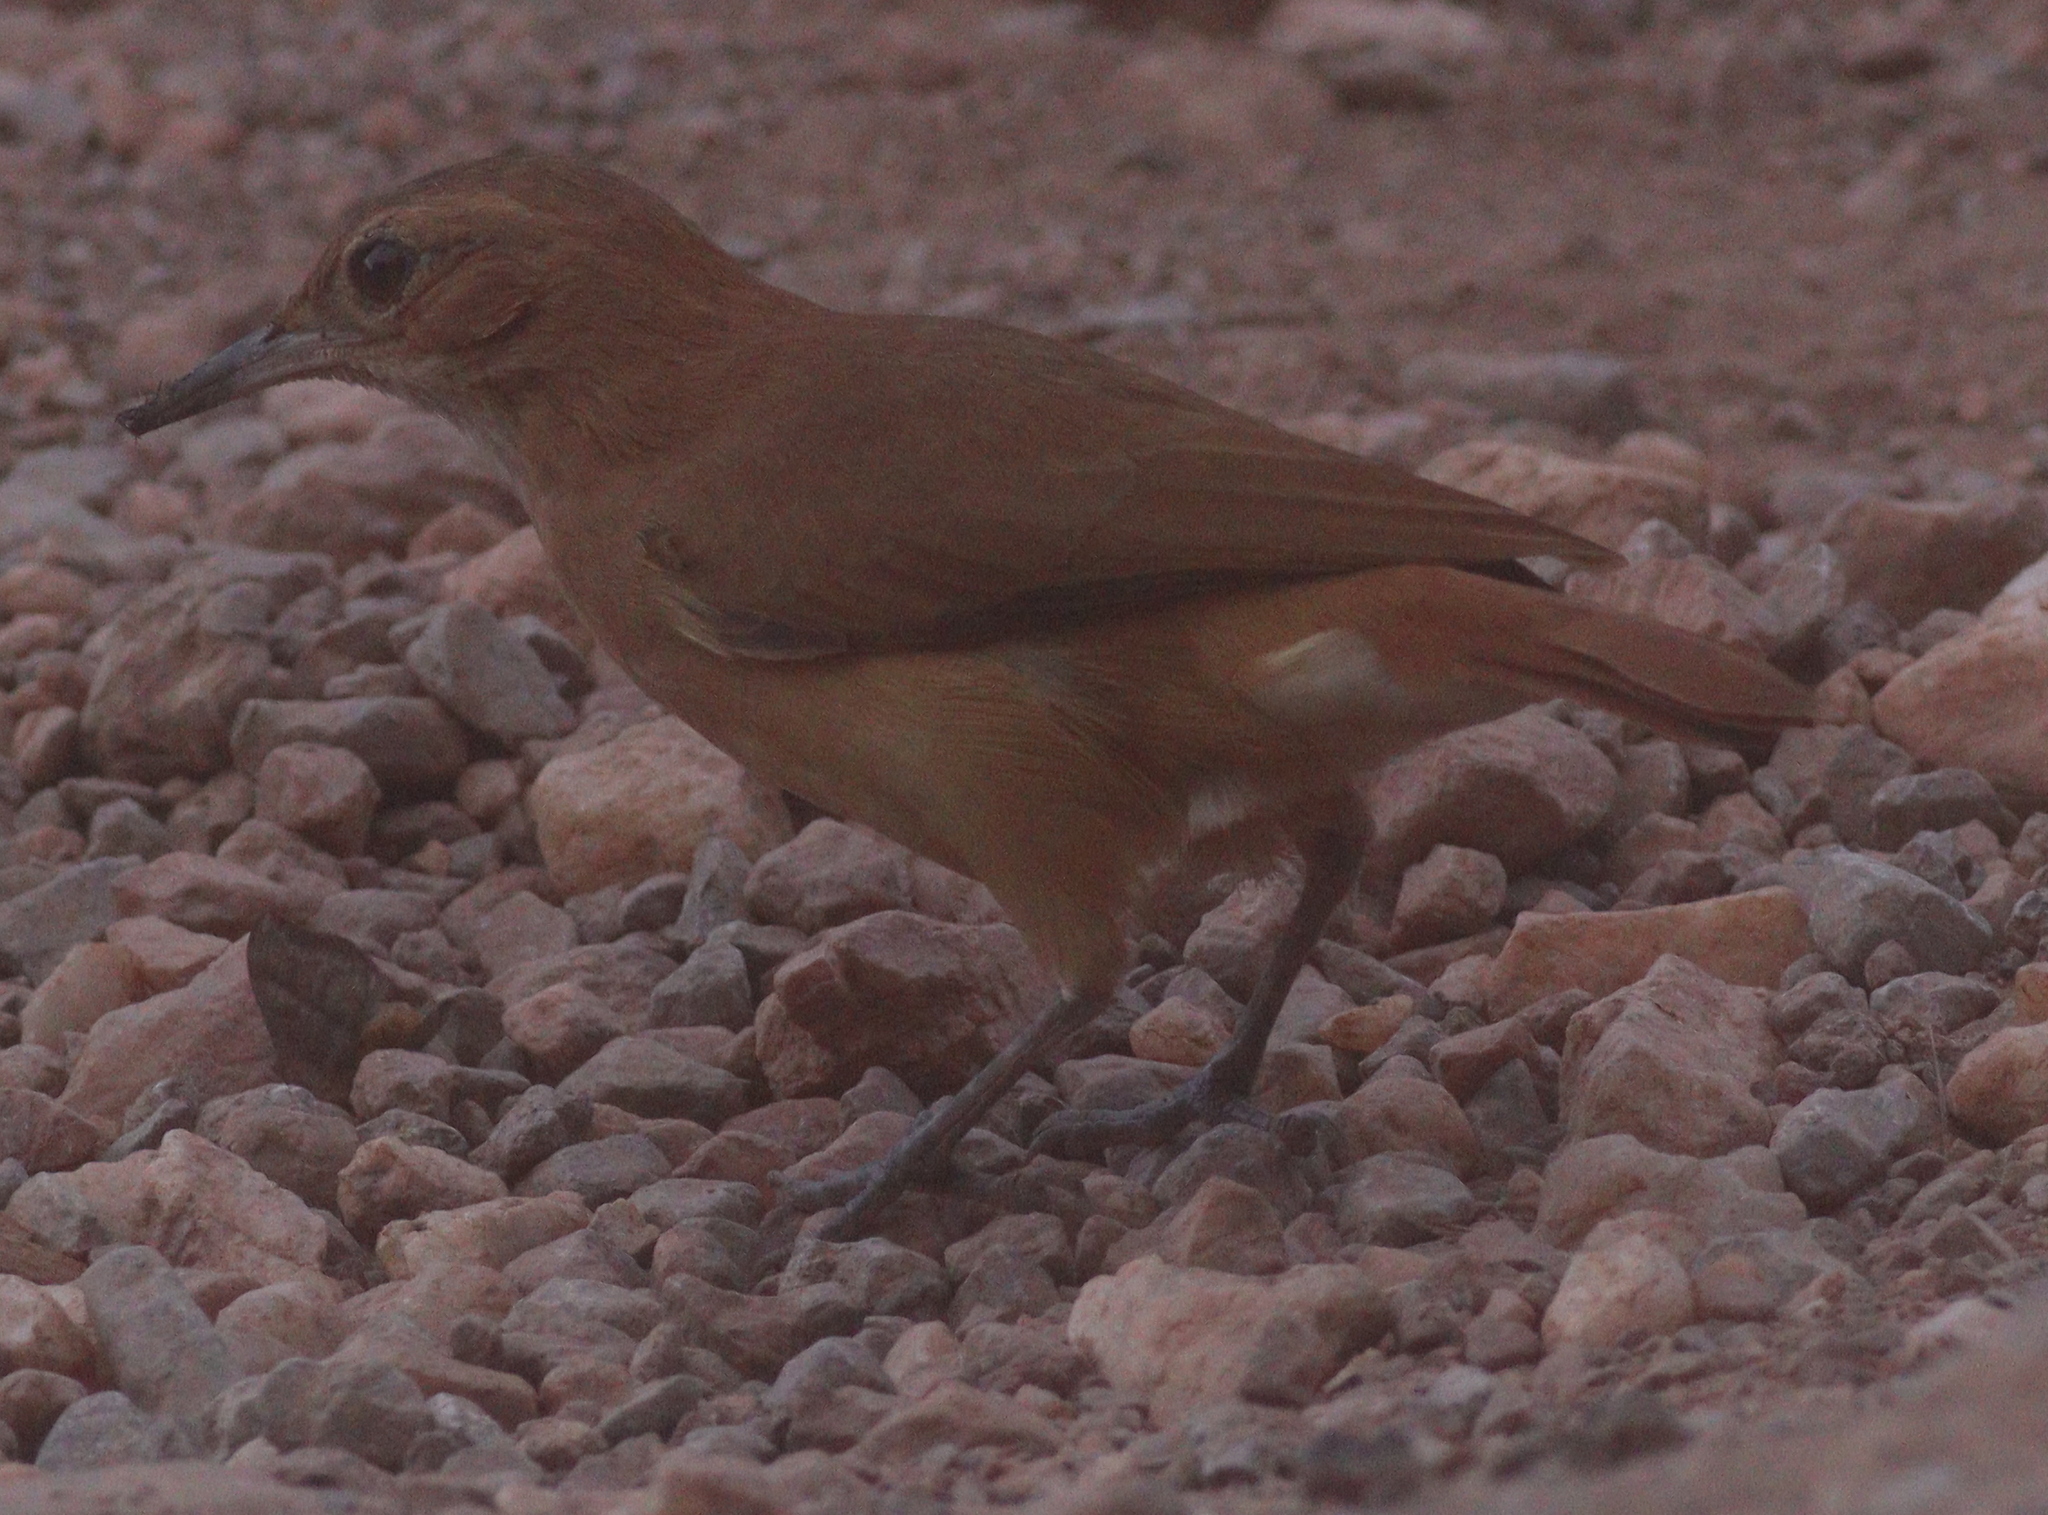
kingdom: Animalia
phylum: Chordata
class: Aves
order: Passeriformes
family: Furnariidae
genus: Furnarius
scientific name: Furnarius rufus
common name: Rufous hornero
